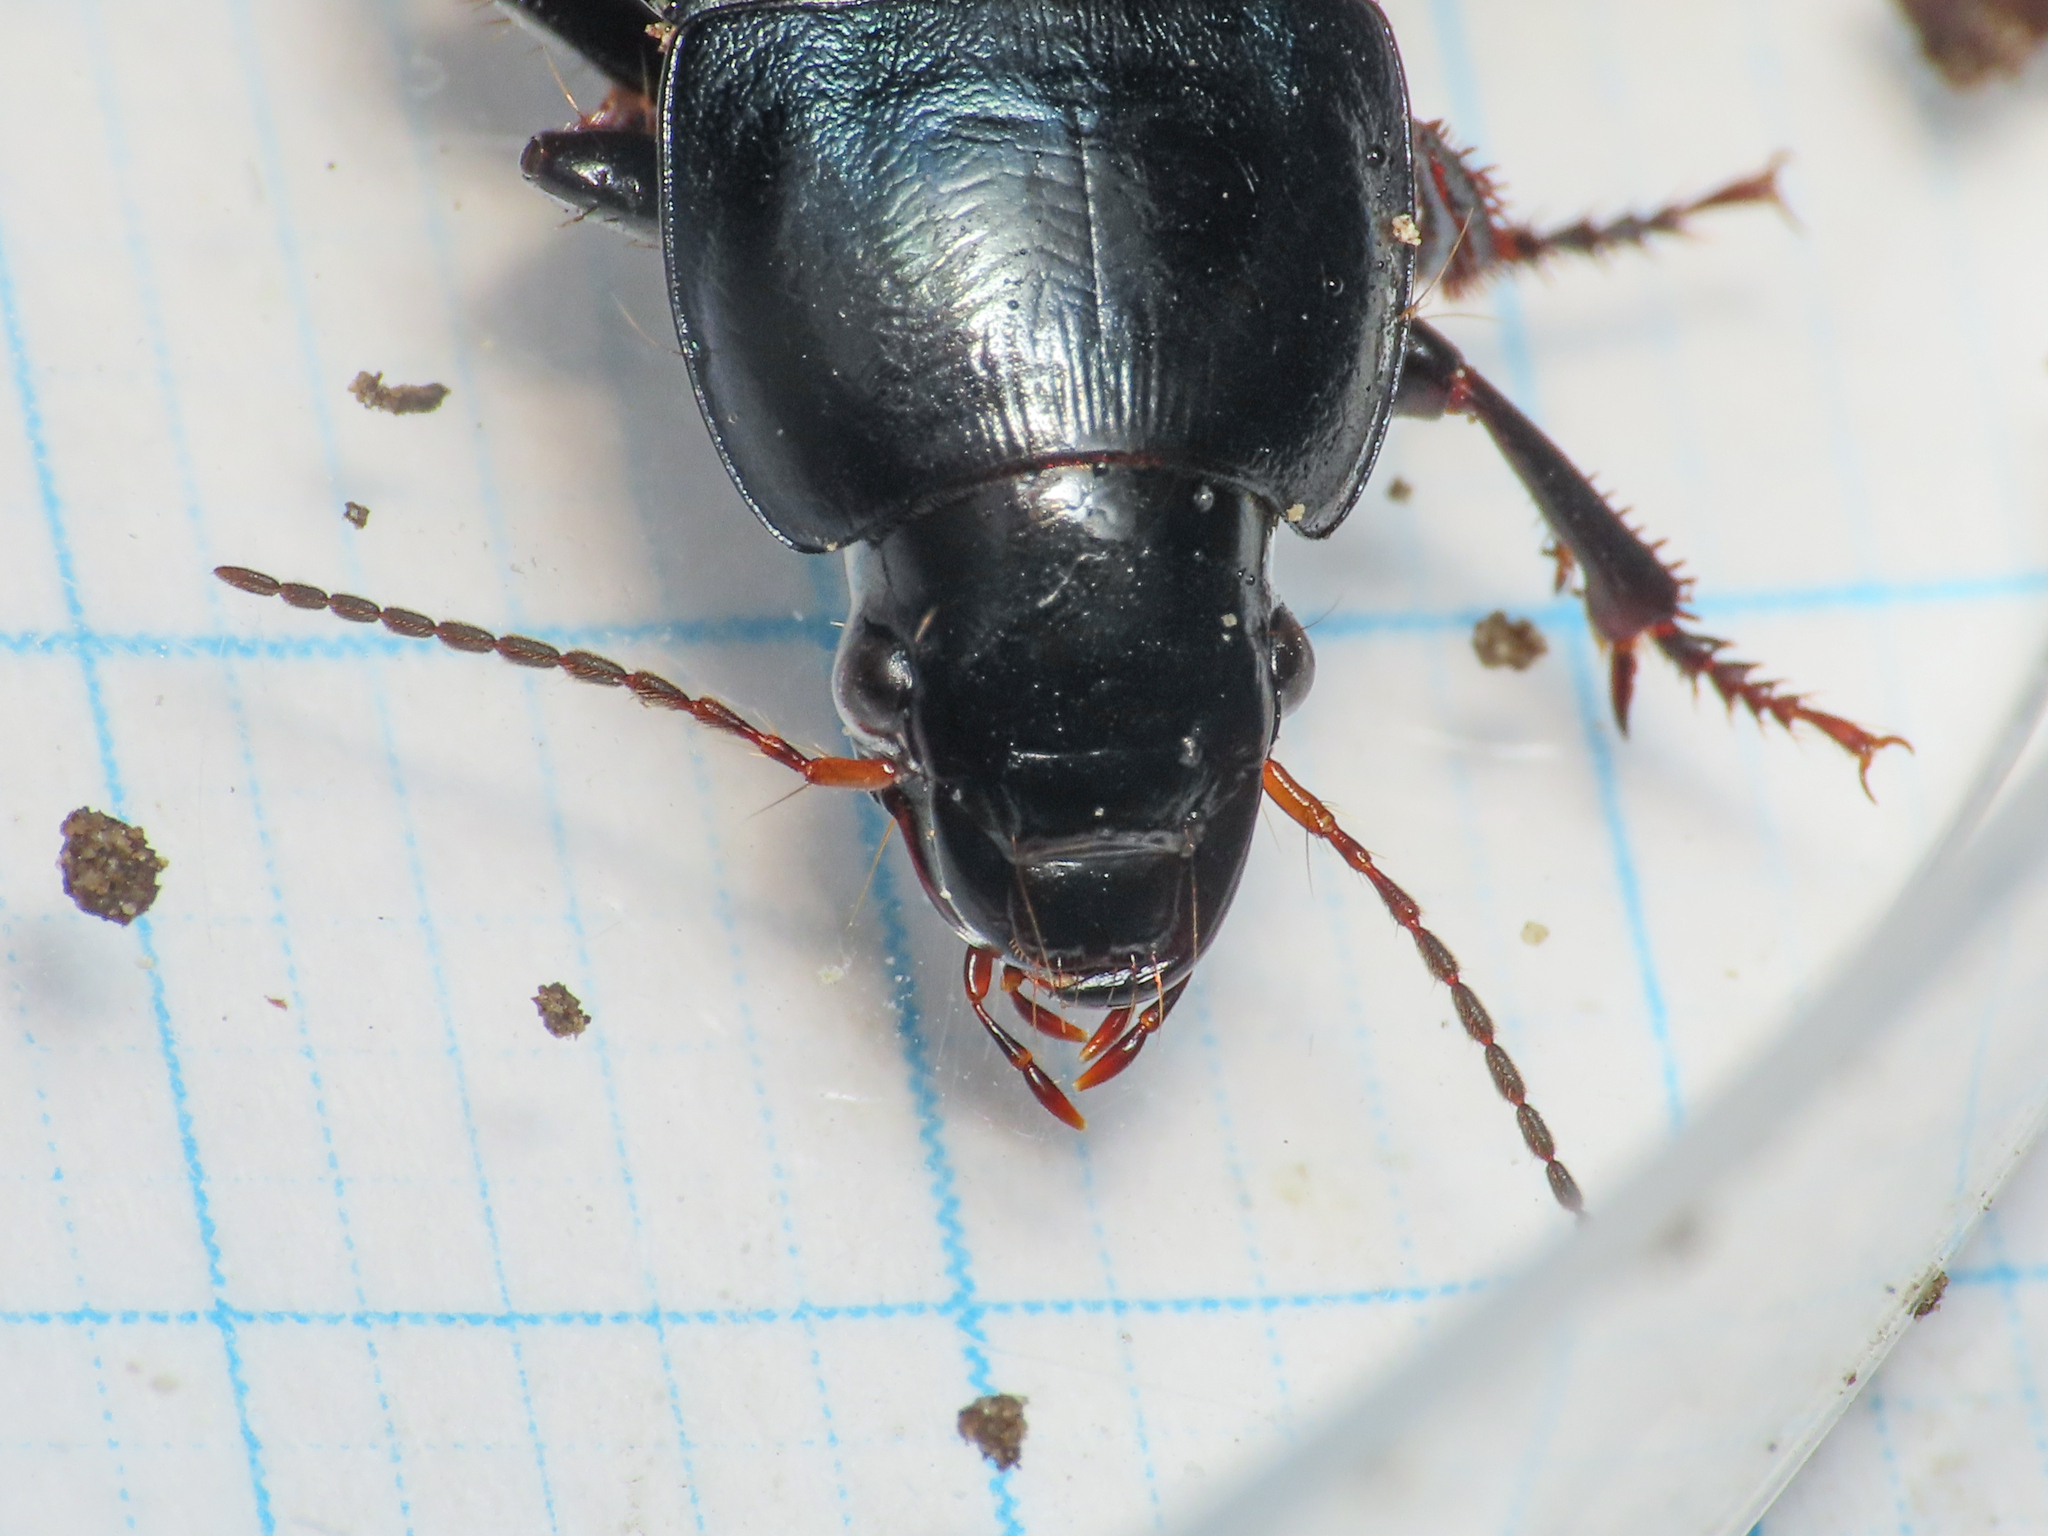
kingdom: Animalia
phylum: Arthropoda
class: Insecta
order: Coleoptera
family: Carabidae
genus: Harpalus
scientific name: Harpalus dimidiatus
